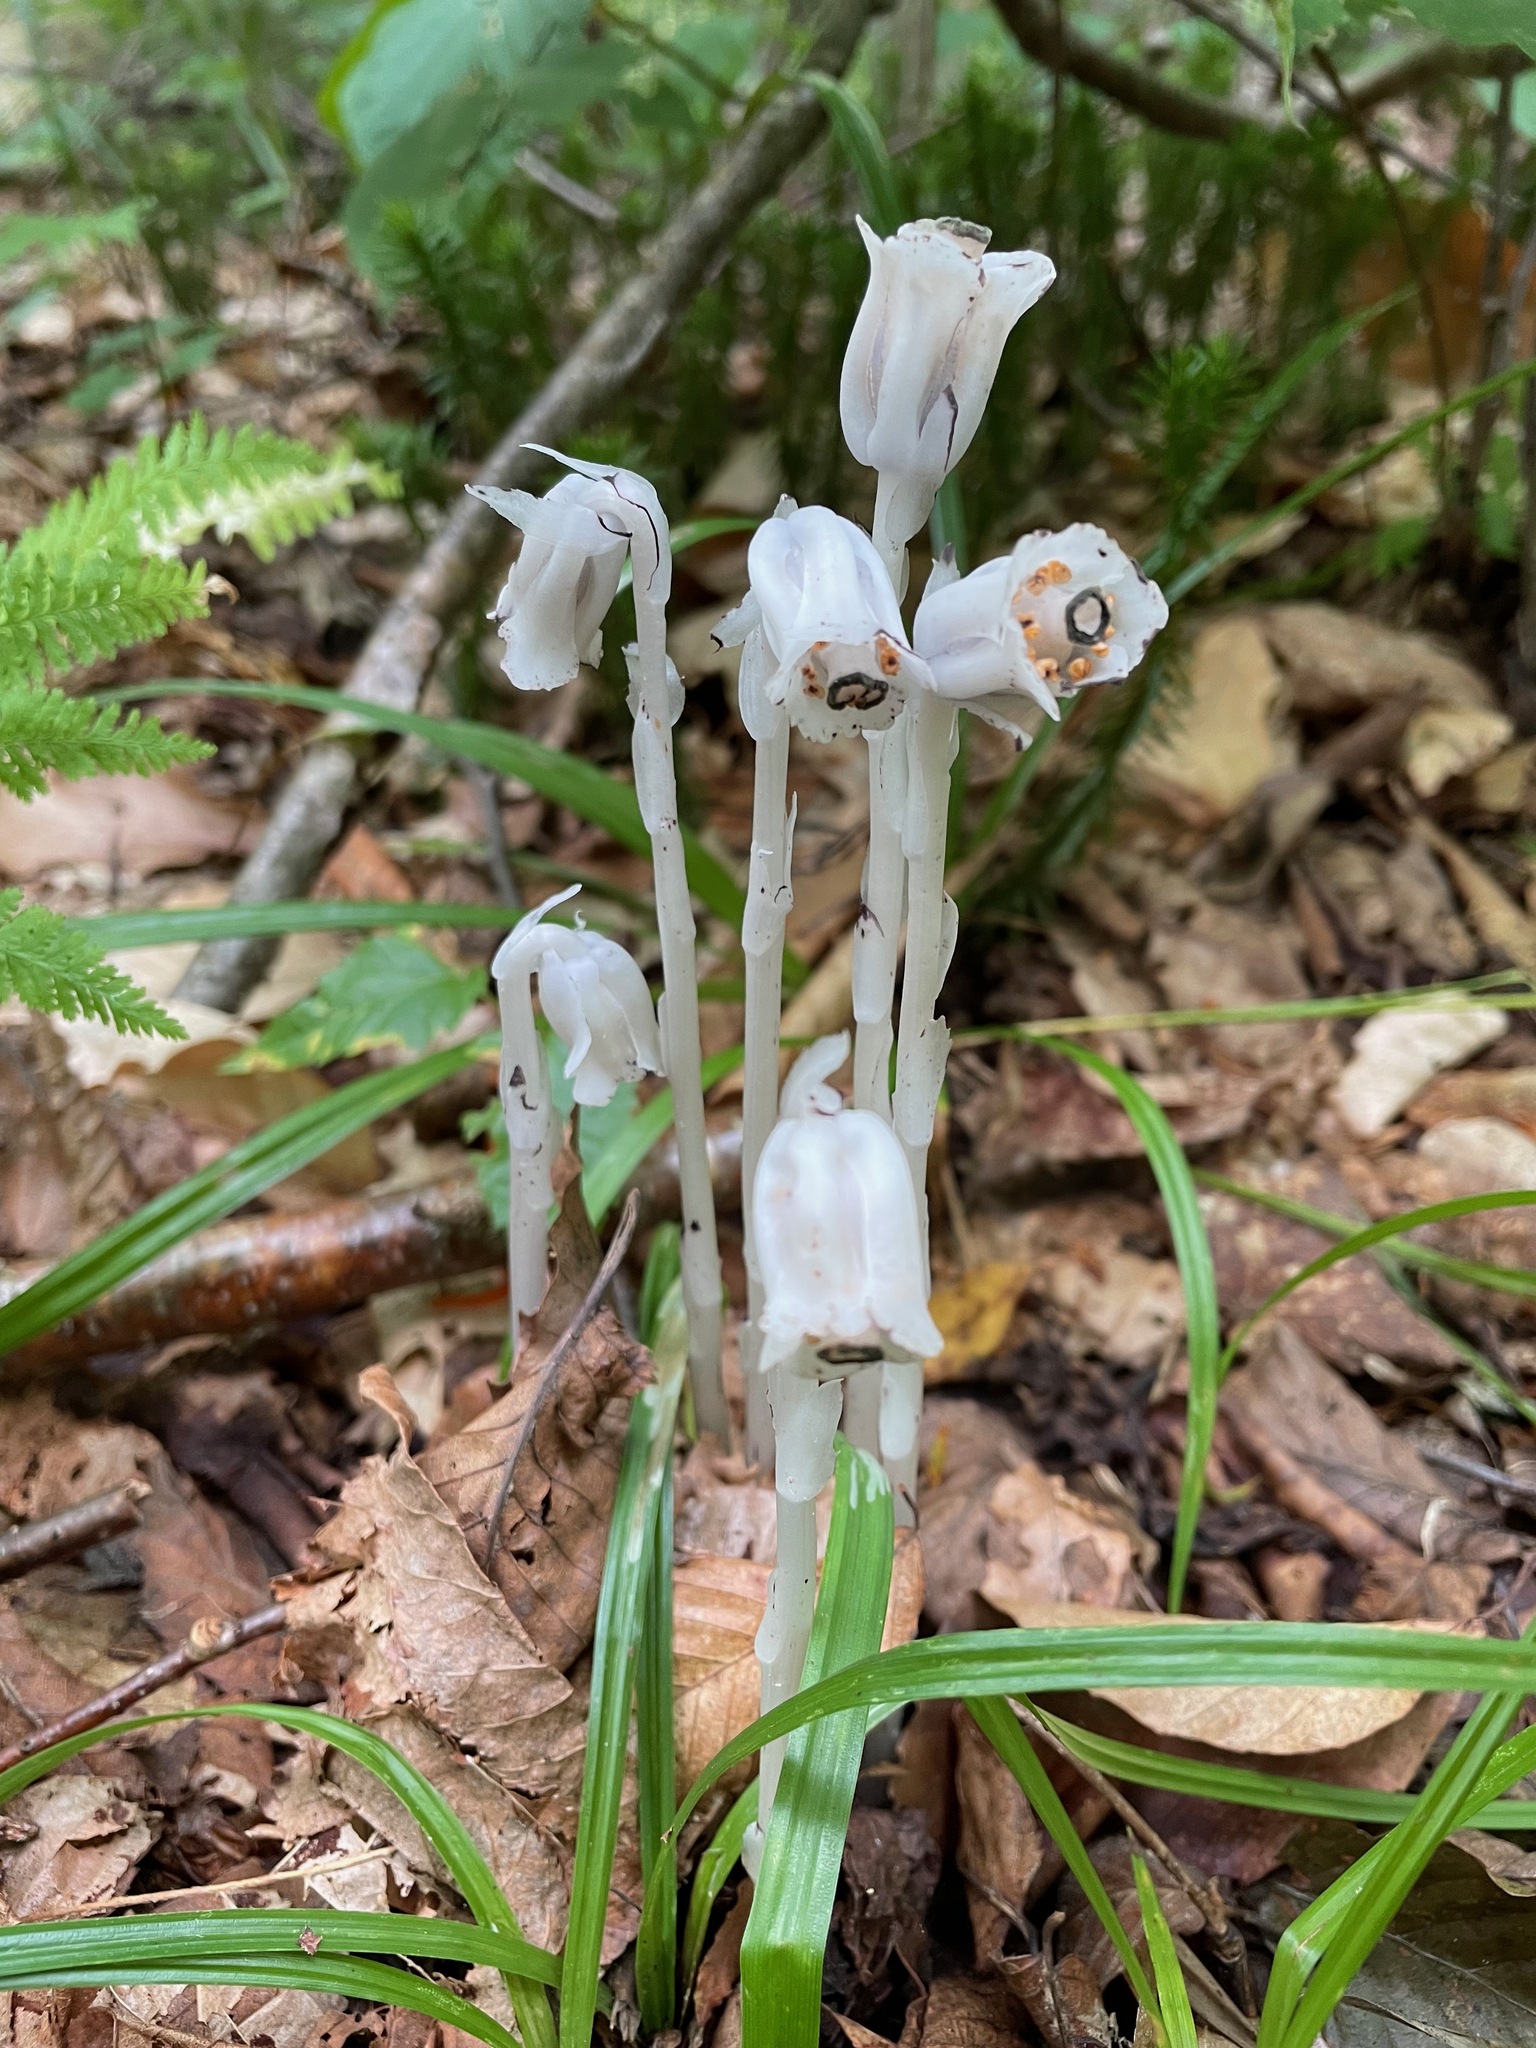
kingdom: Plantae
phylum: Tracheophyta
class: Magnoliopsida
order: Ericales
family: Ericaceae
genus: Monotropa
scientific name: Monotropa uniflora
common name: Convulsion root
